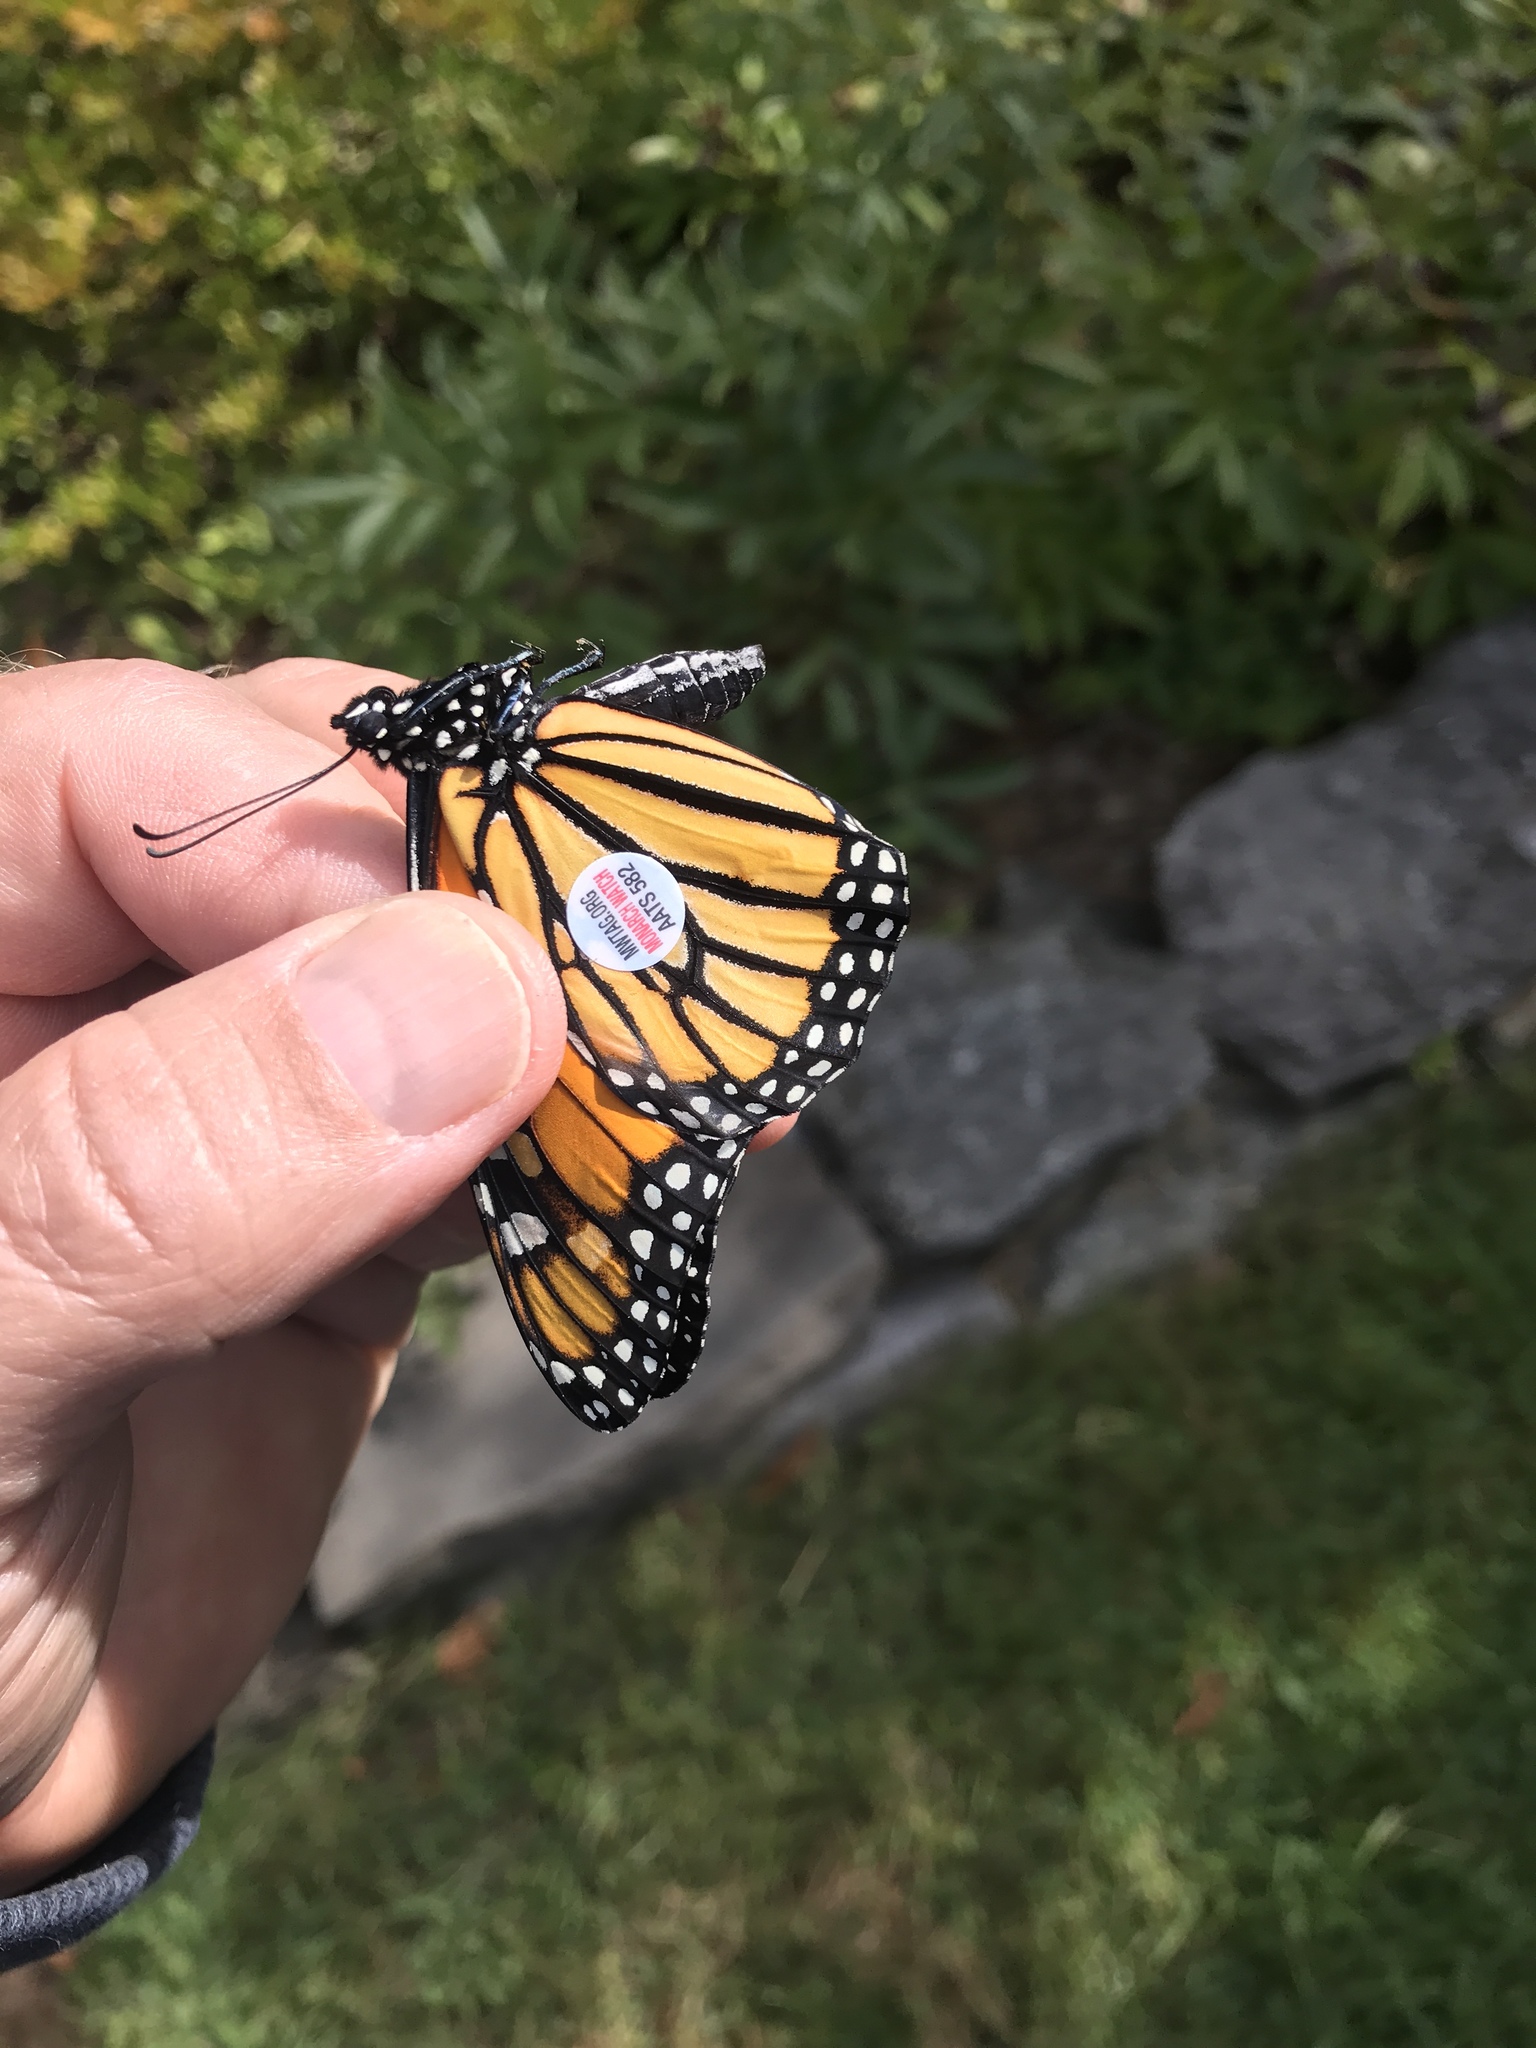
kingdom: Animalia
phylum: Arthropoda
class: Insecta
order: Lepidoptera
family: Nymphalidae
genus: Danaus
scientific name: Danaus plexippus
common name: Monarch
